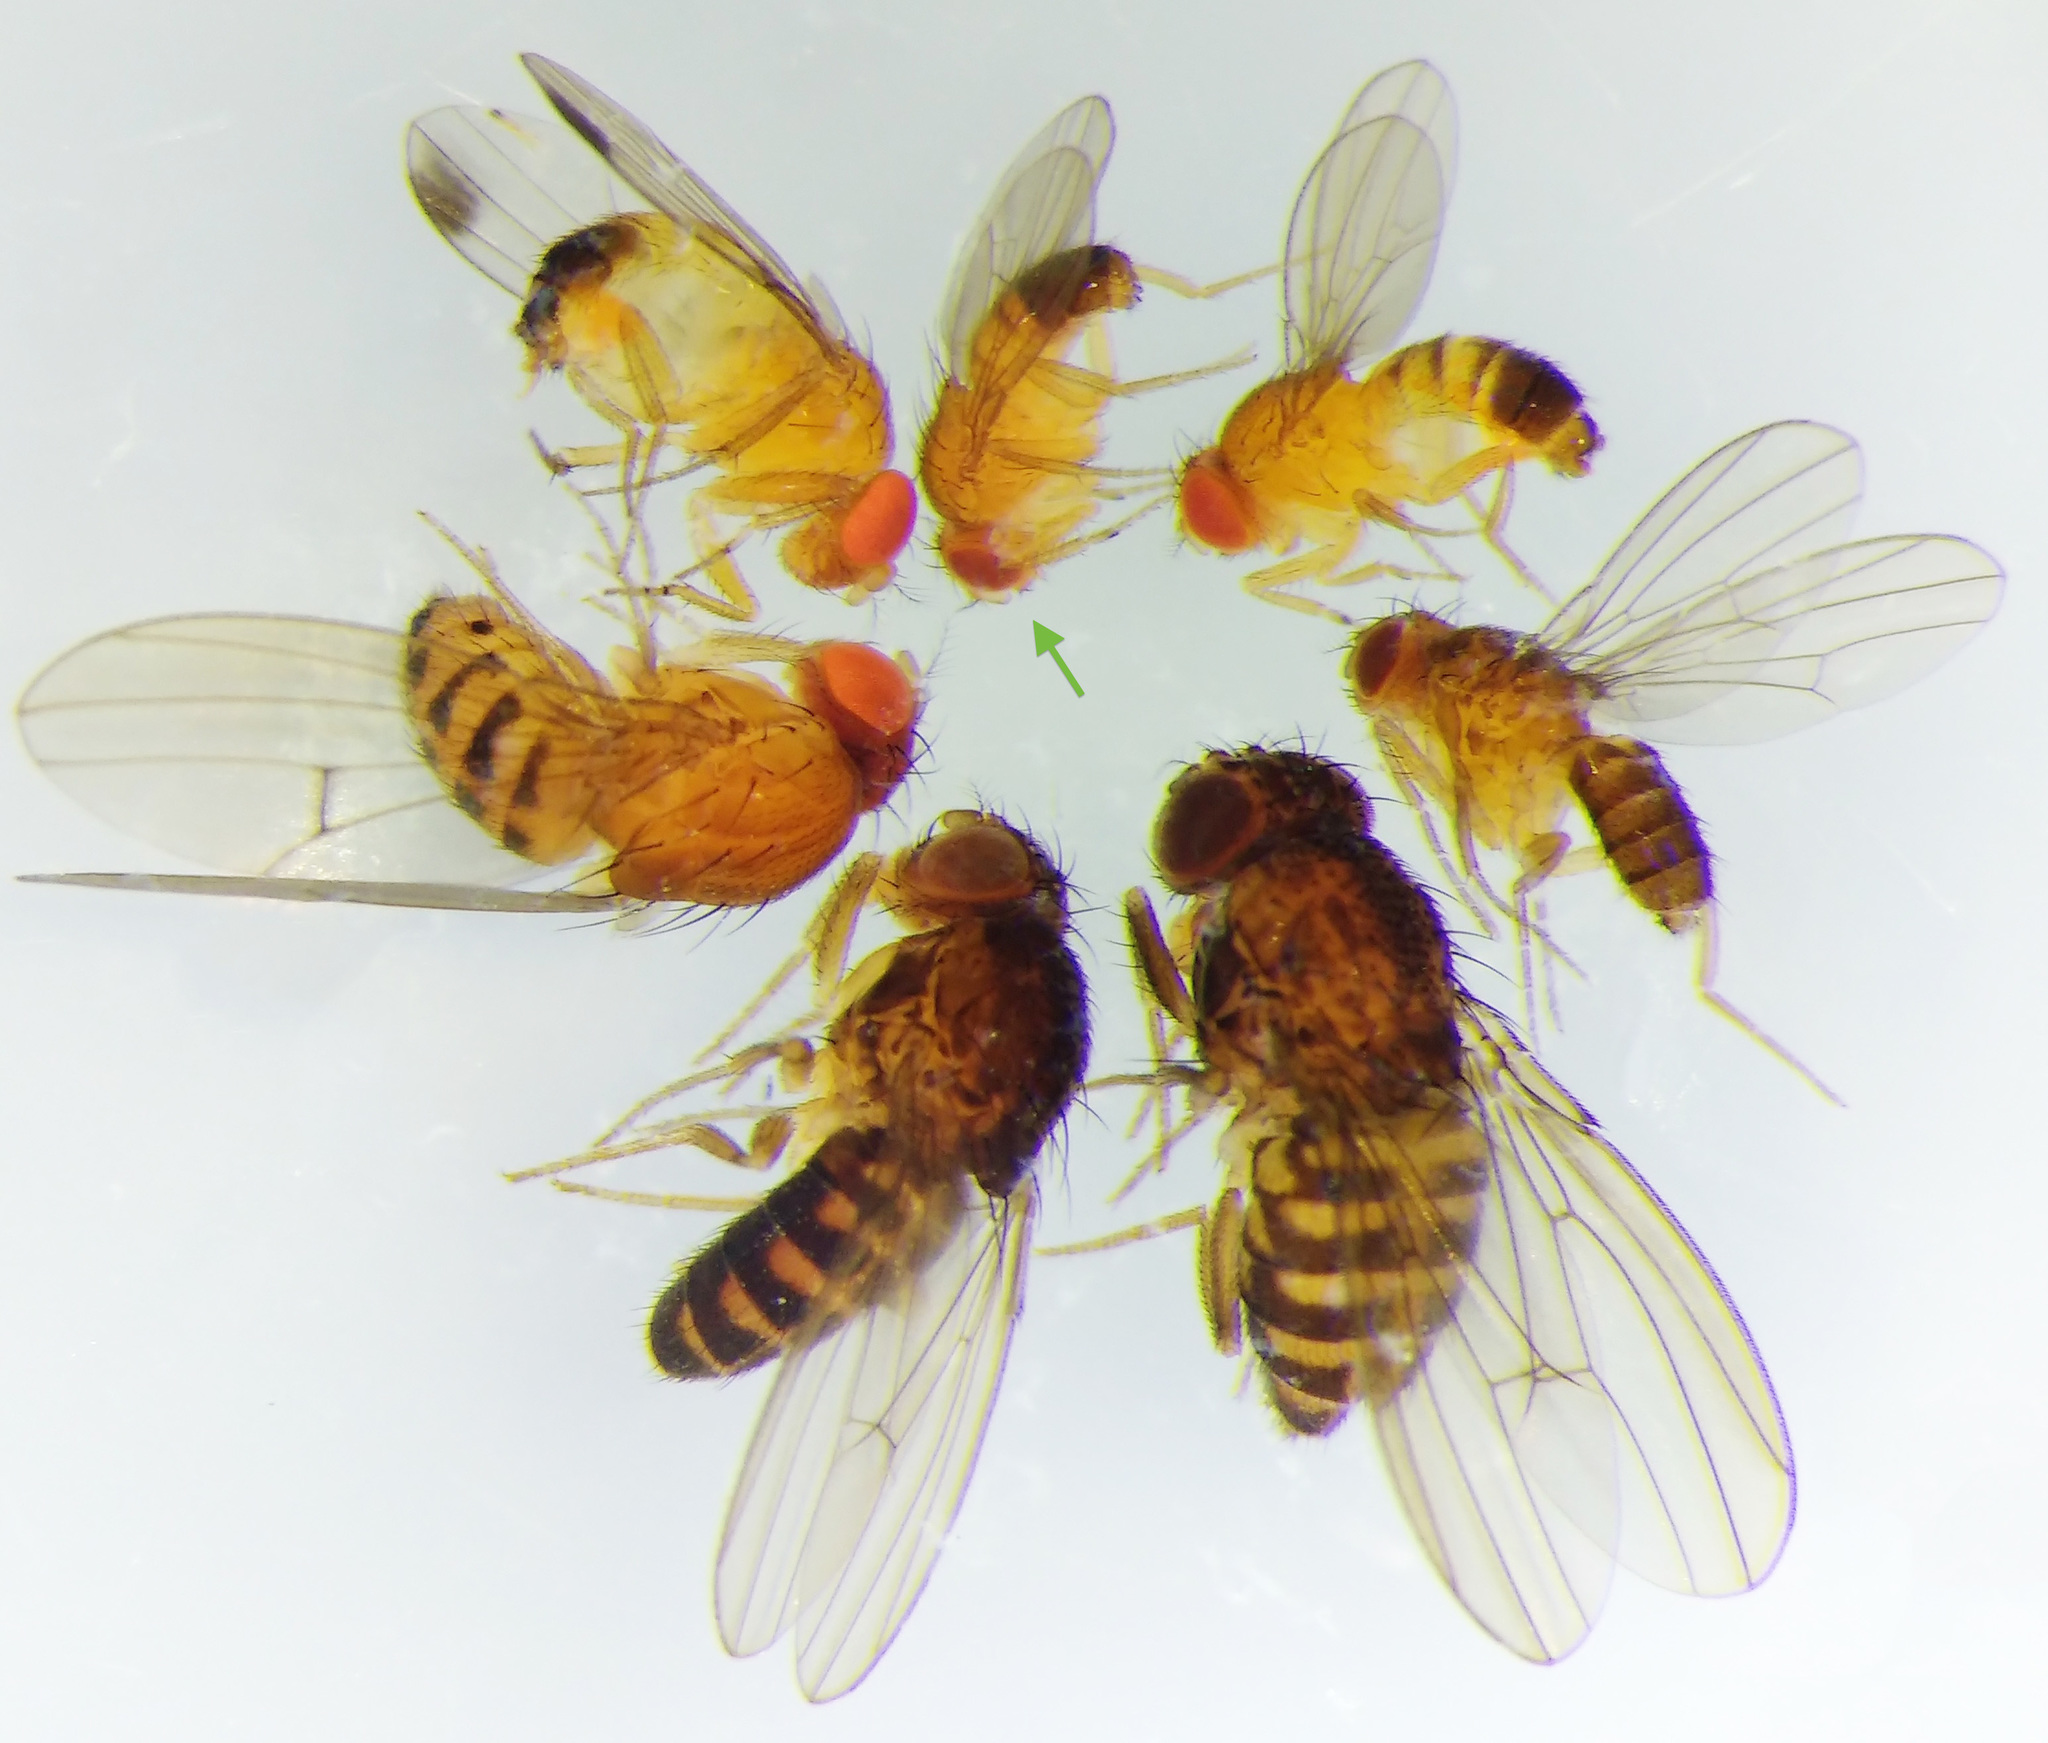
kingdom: Animalia
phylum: Arthropoda
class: Insecta
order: Diptera
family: Drosophilidae
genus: Drosophila
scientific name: Drosophila melanogaster
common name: Pomace fly
